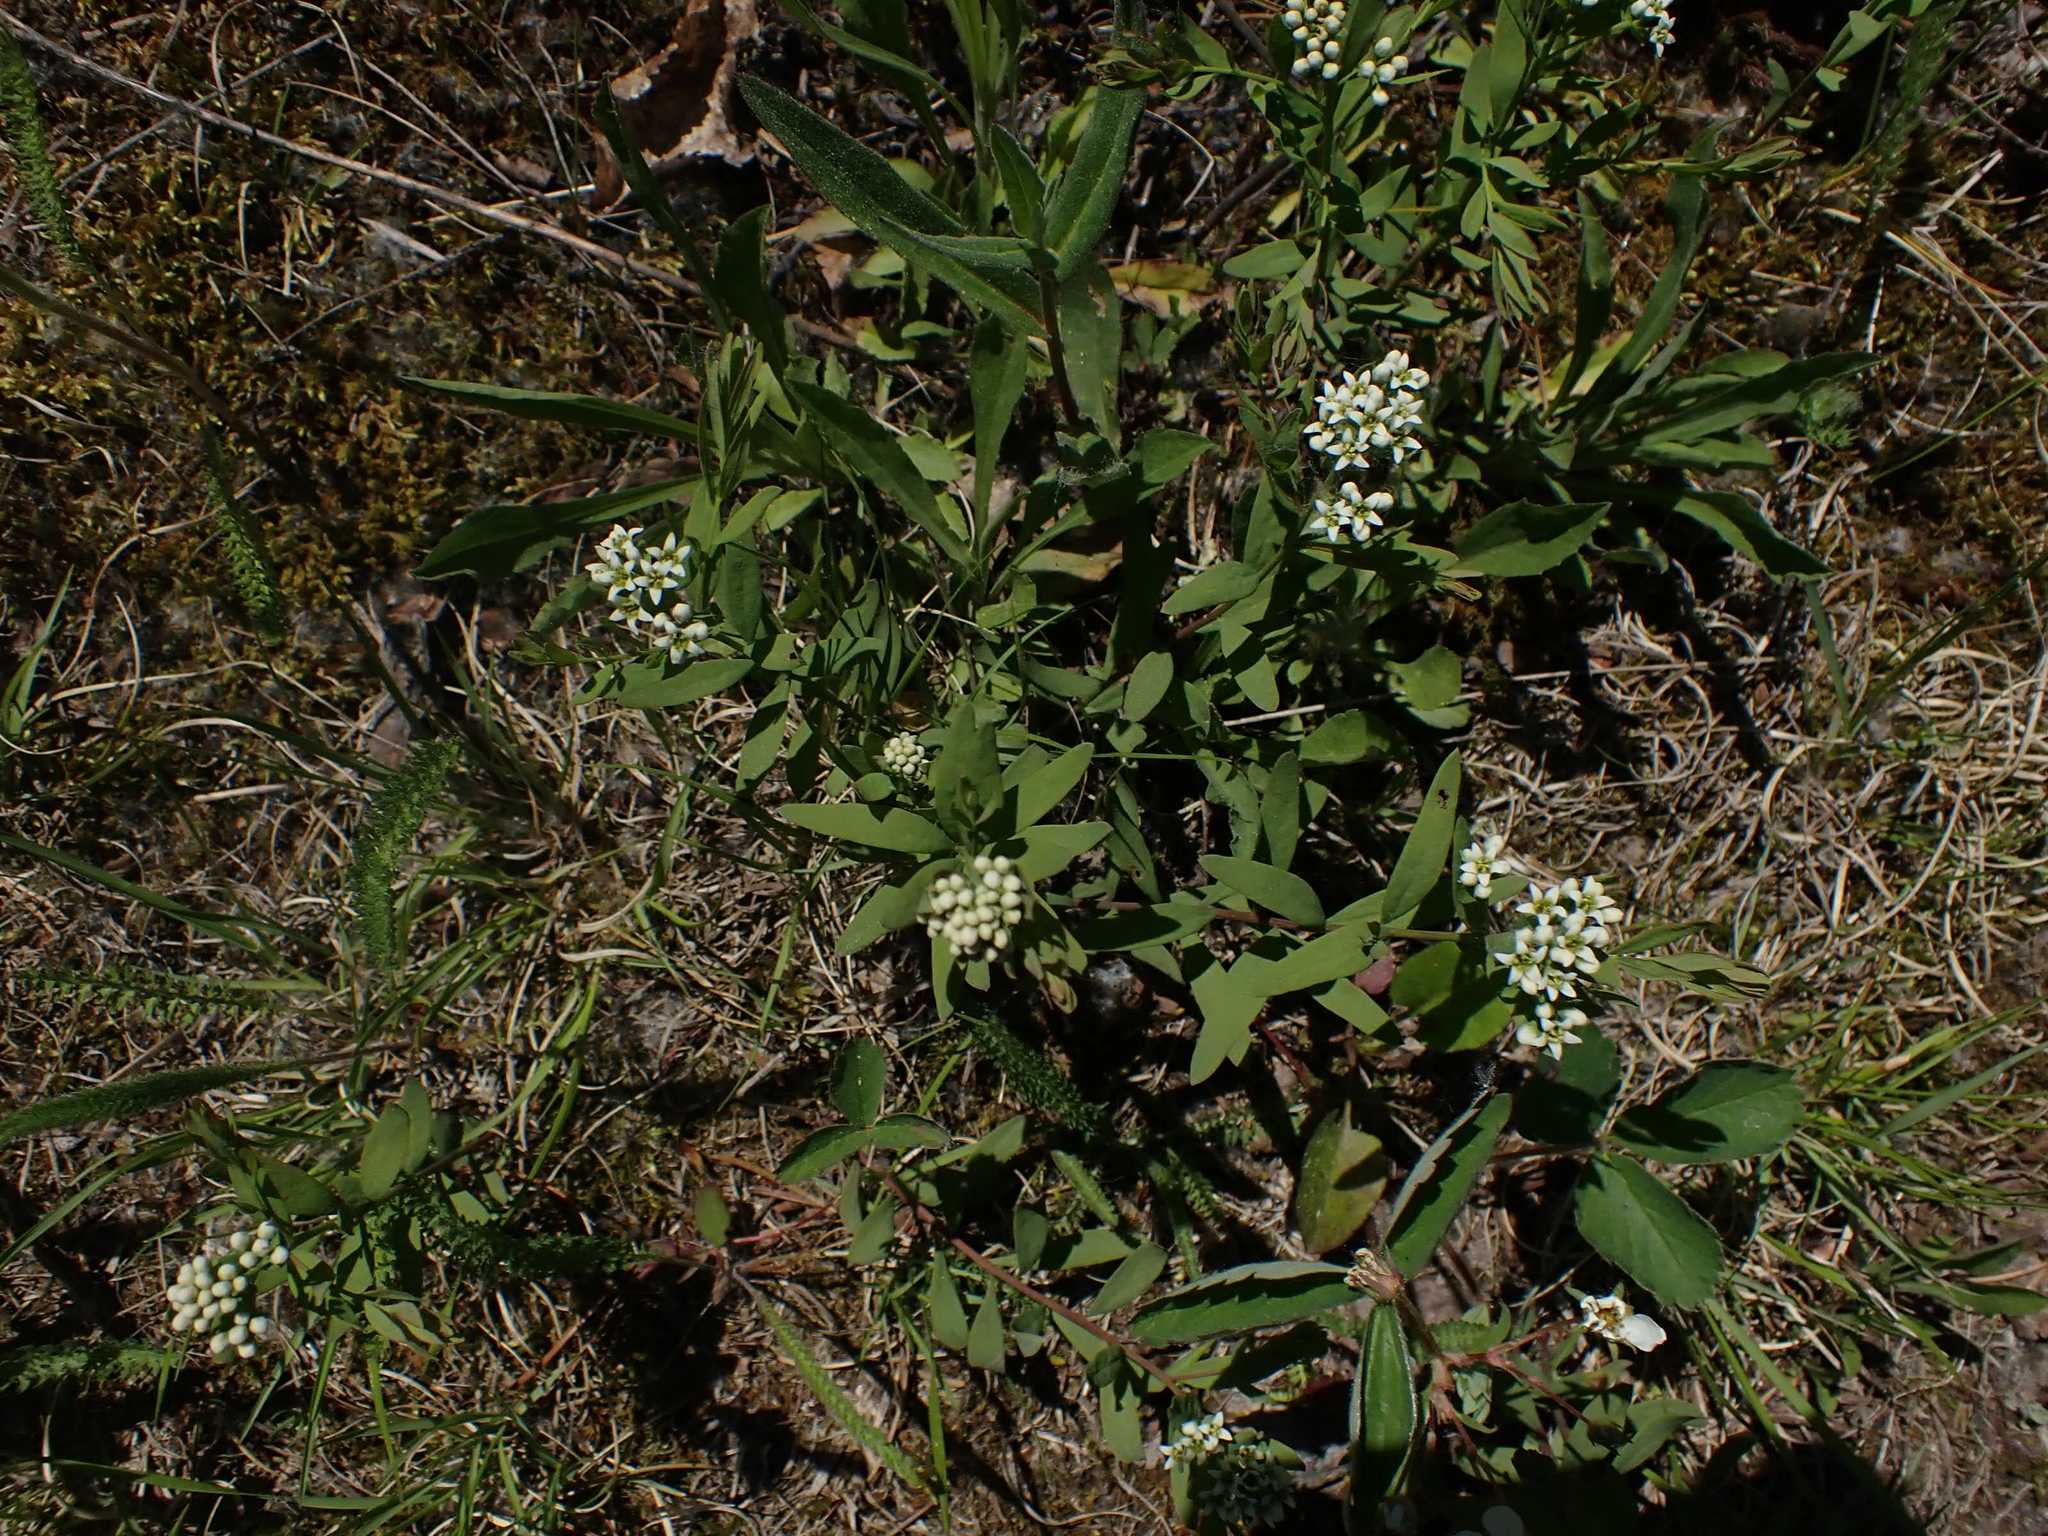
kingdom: Plantae
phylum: Tracheophyta
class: Magnoliopsida
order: Santalales
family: Comandraceae
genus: Comandra
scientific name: Comandra umbellata
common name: Bastard toadflax
